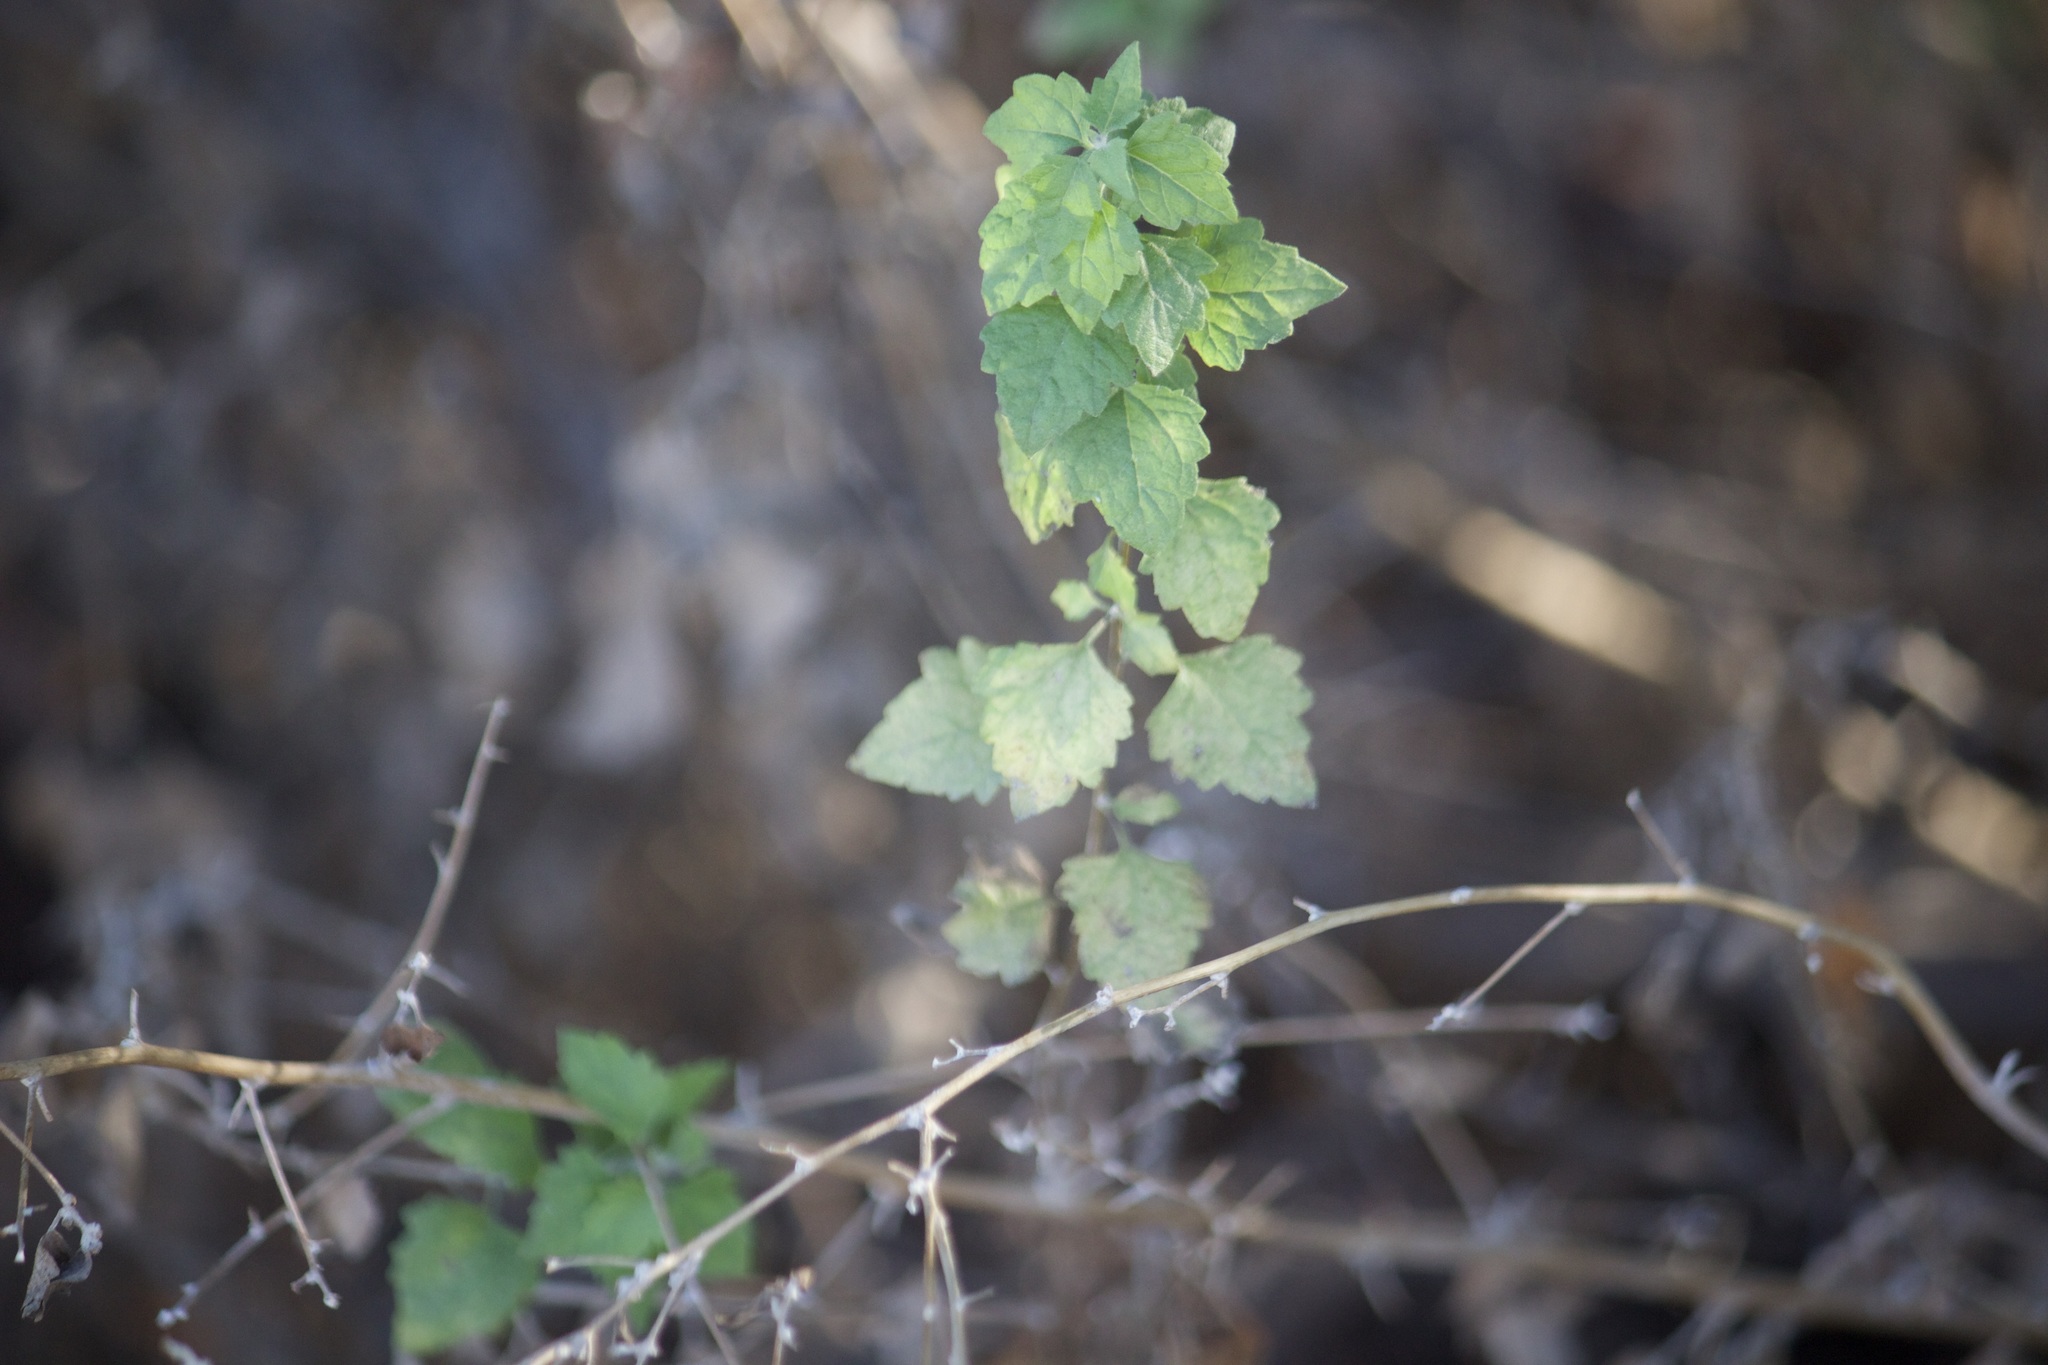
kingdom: Plantae
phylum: Tracheophyta
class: Magnoliopsida
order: Asterales
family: Asteraceae
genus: Brickellia
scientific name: Brickellia californica
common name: California brickellbush
